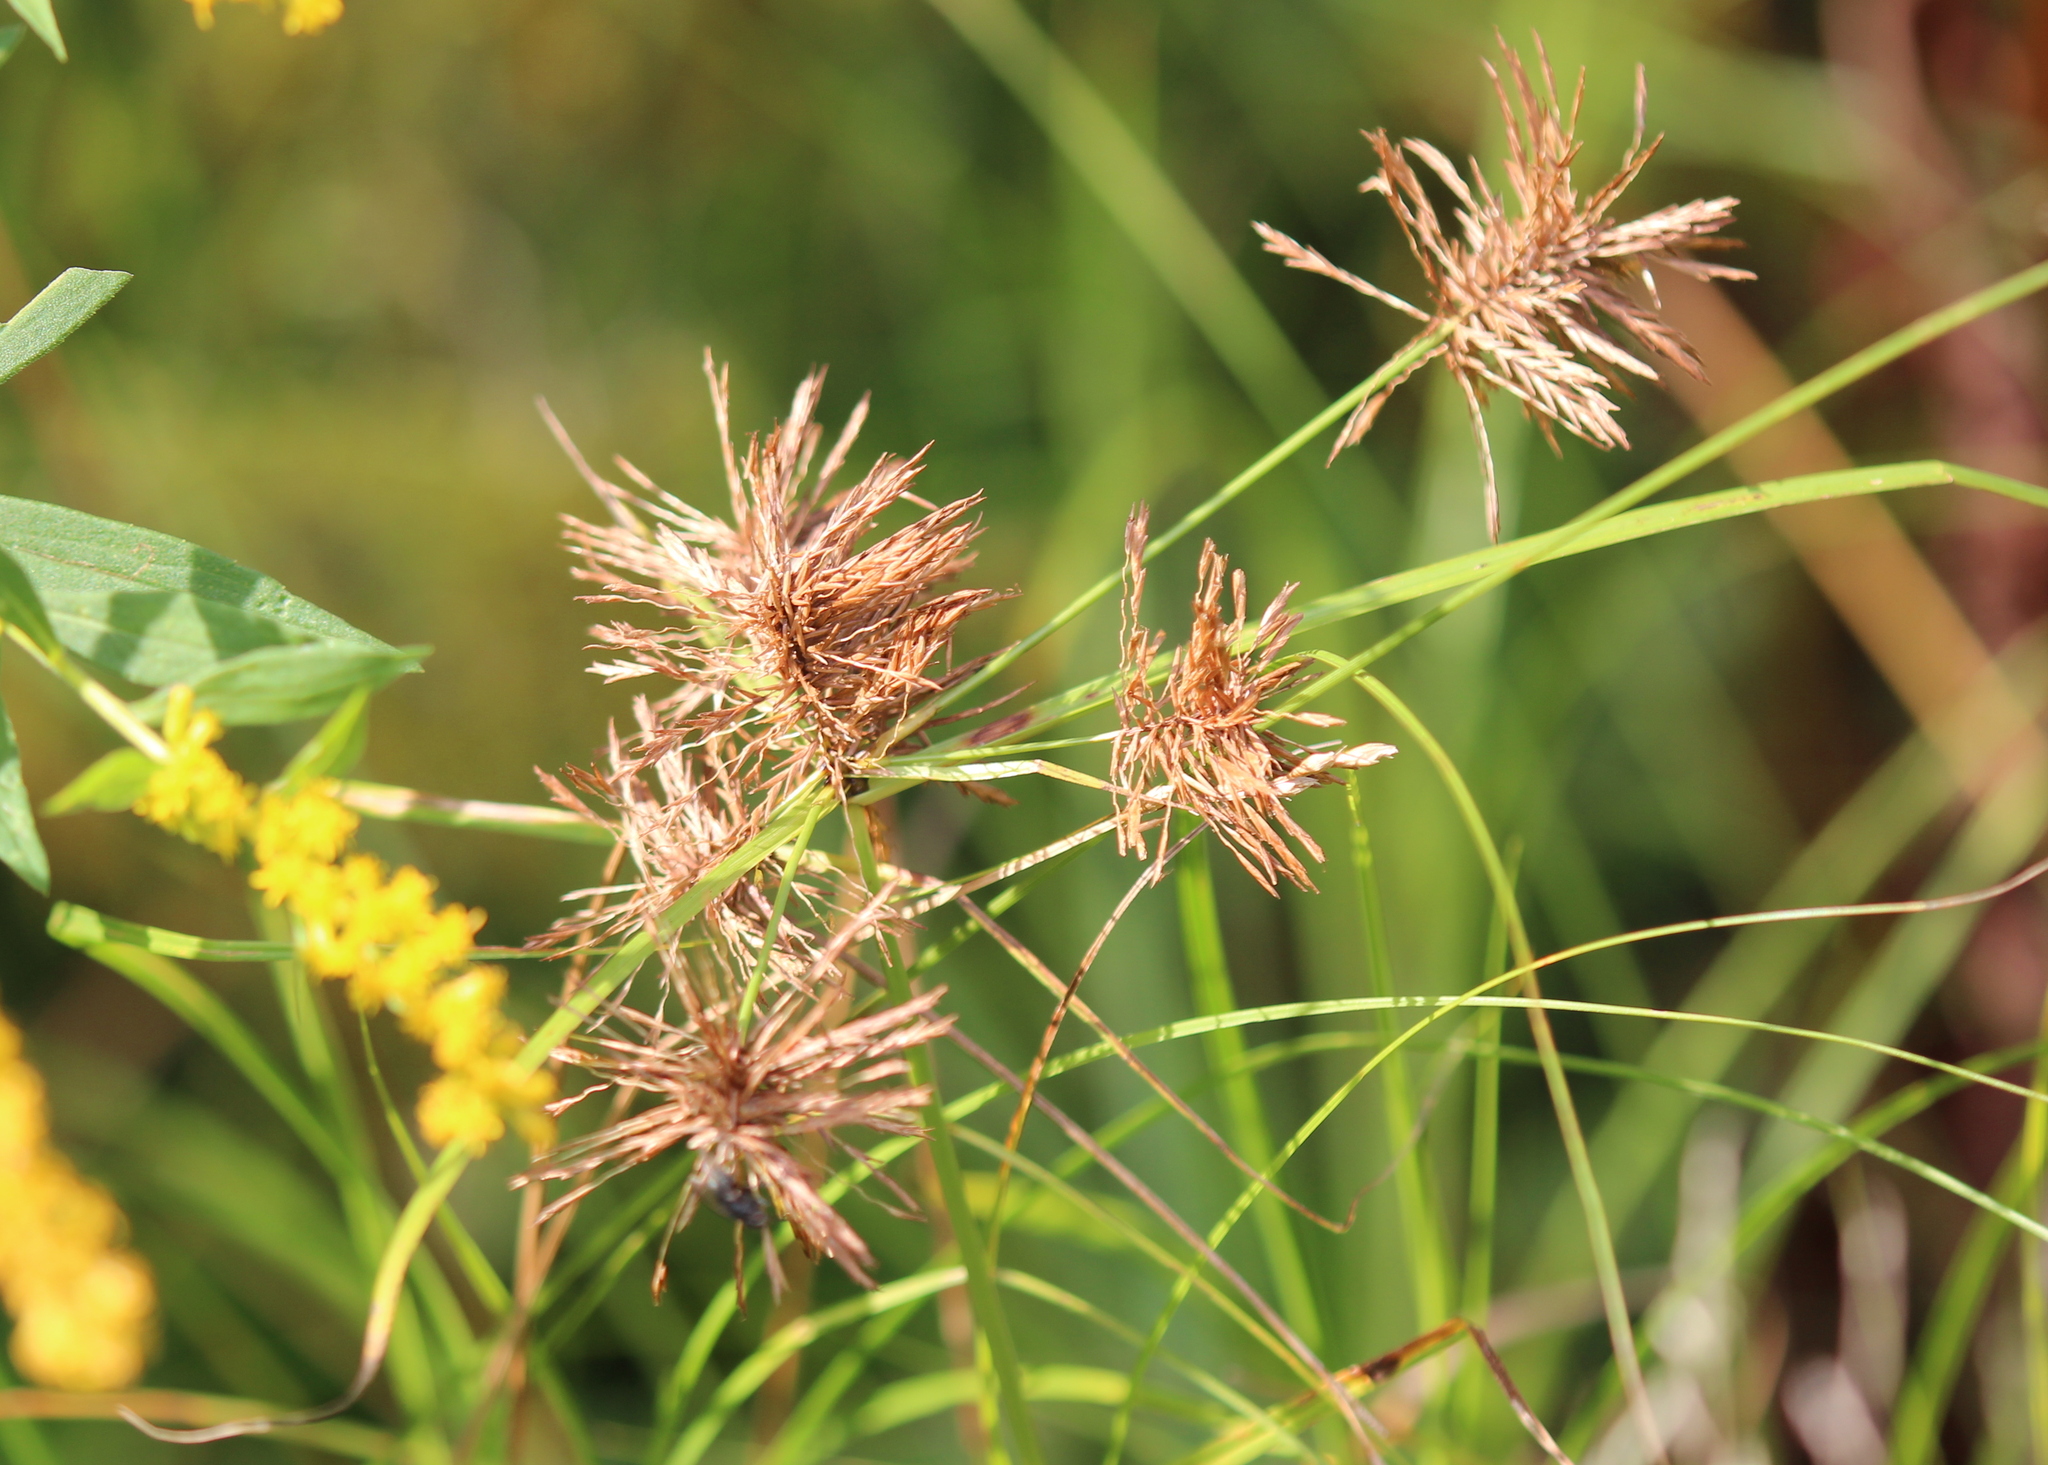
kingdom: Plantae
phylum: Tracheophyta
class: Liliopsida
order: Poales
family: Cyperaceae
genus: Cyperus
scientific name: Cyperus strigosus
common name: False nutsedge
